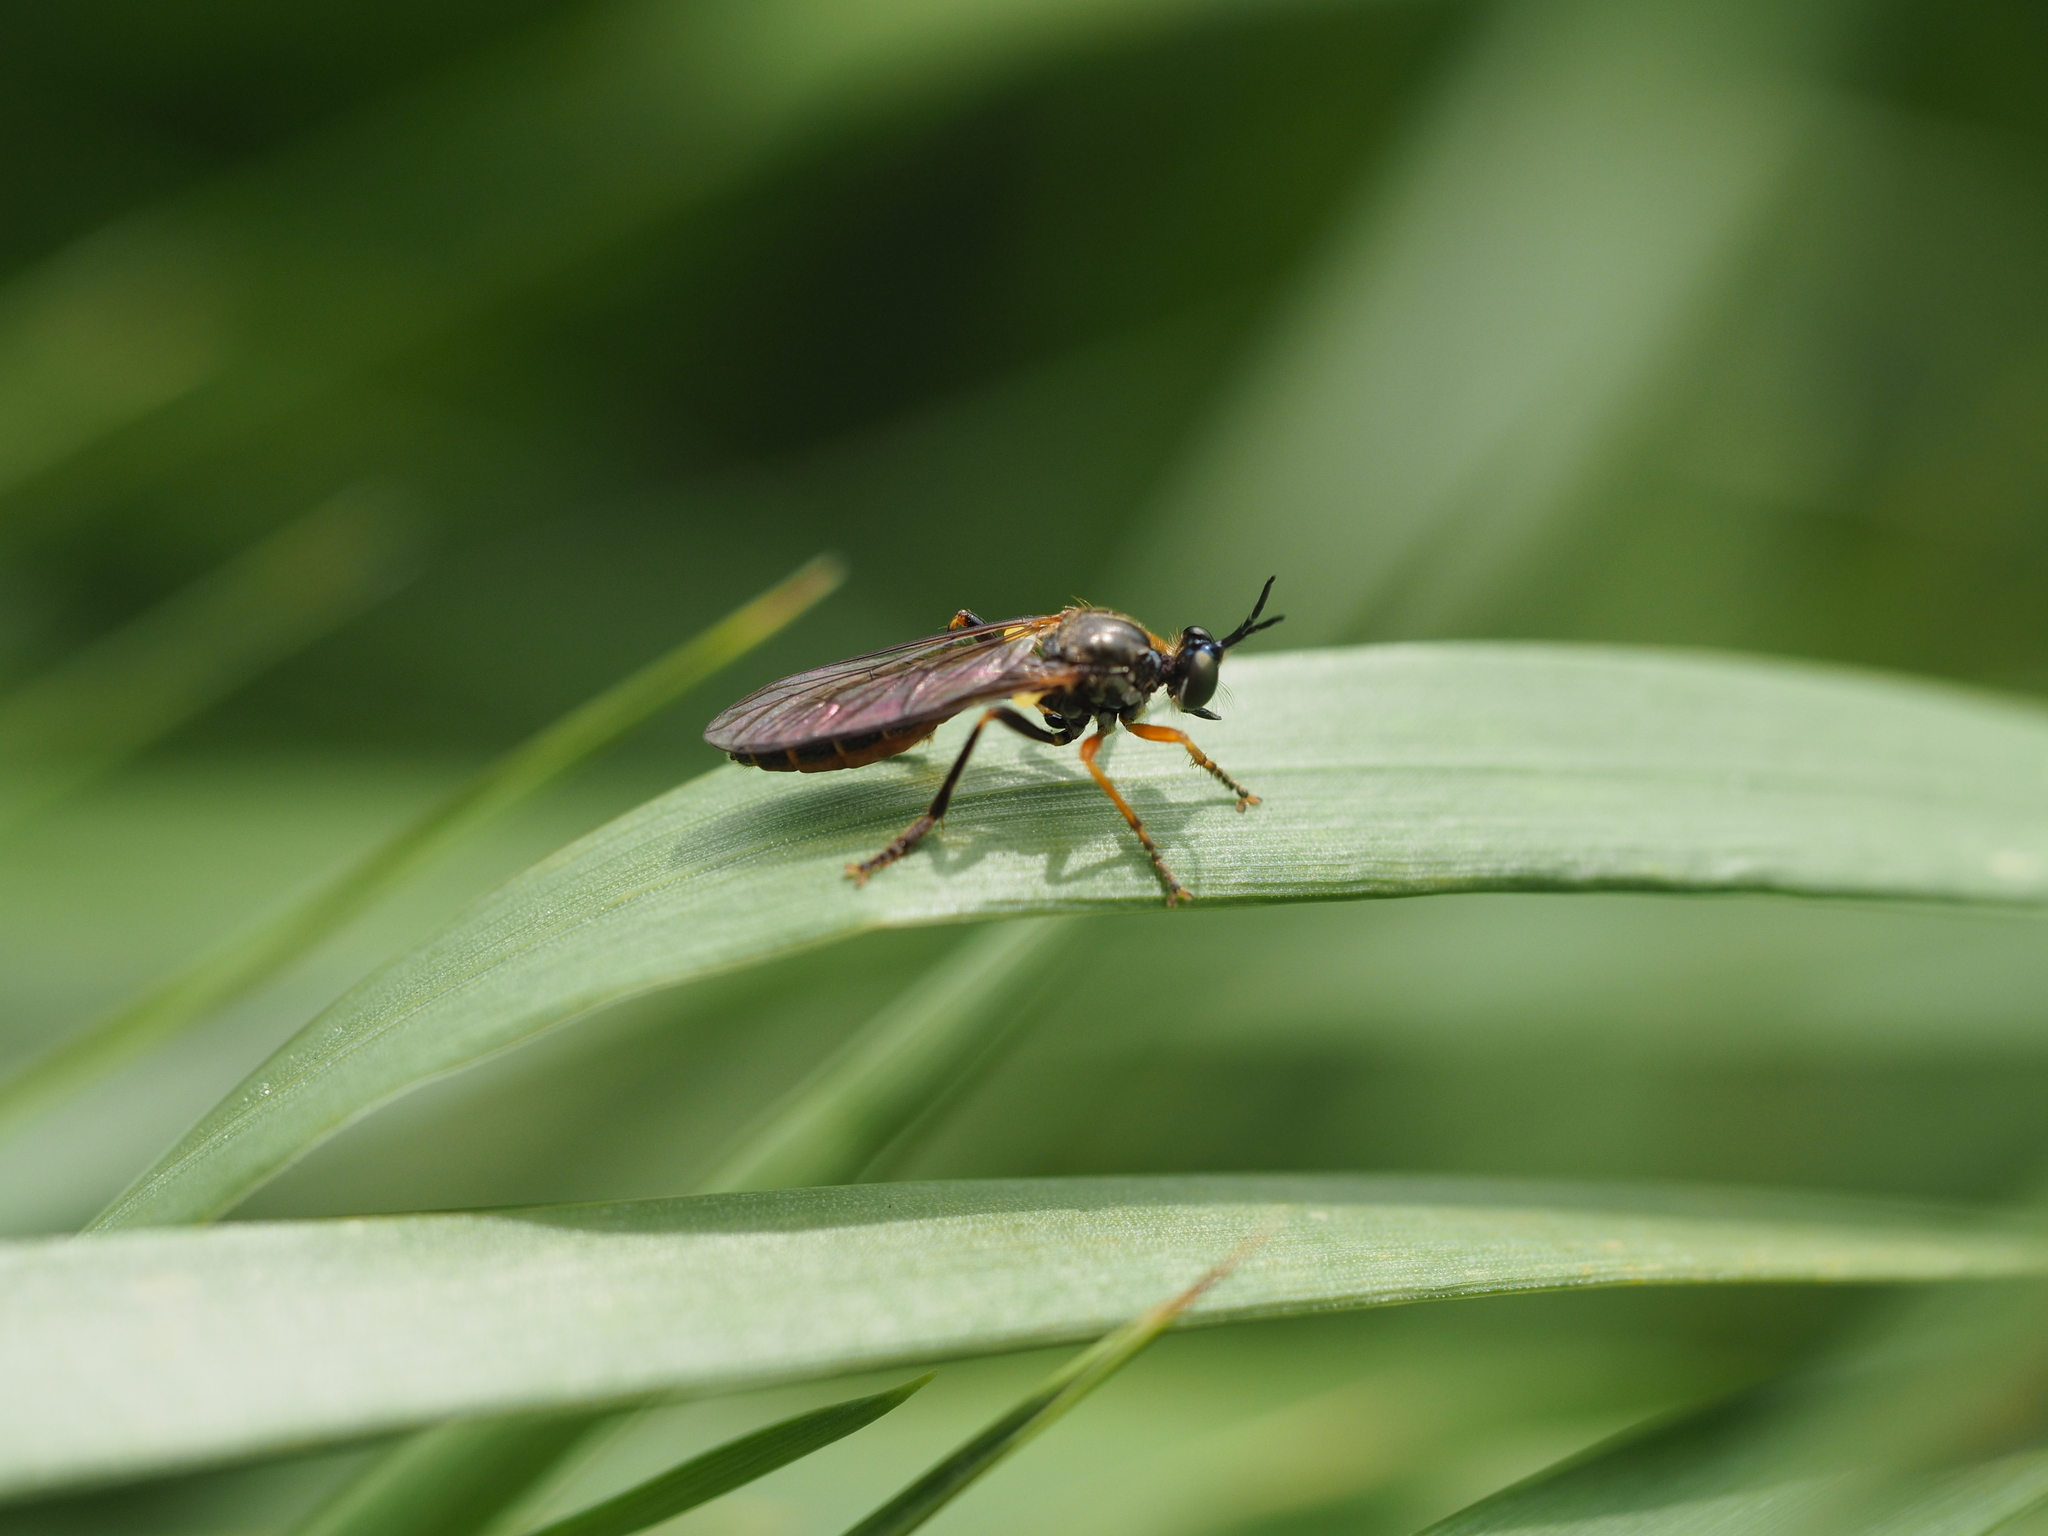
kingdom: Animalia
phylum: Arthropoda
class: Insecta
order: Diptera
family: Asilidae
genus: Dioctria
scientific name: Dioctria rufipes
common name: Common red-legged robberfly
